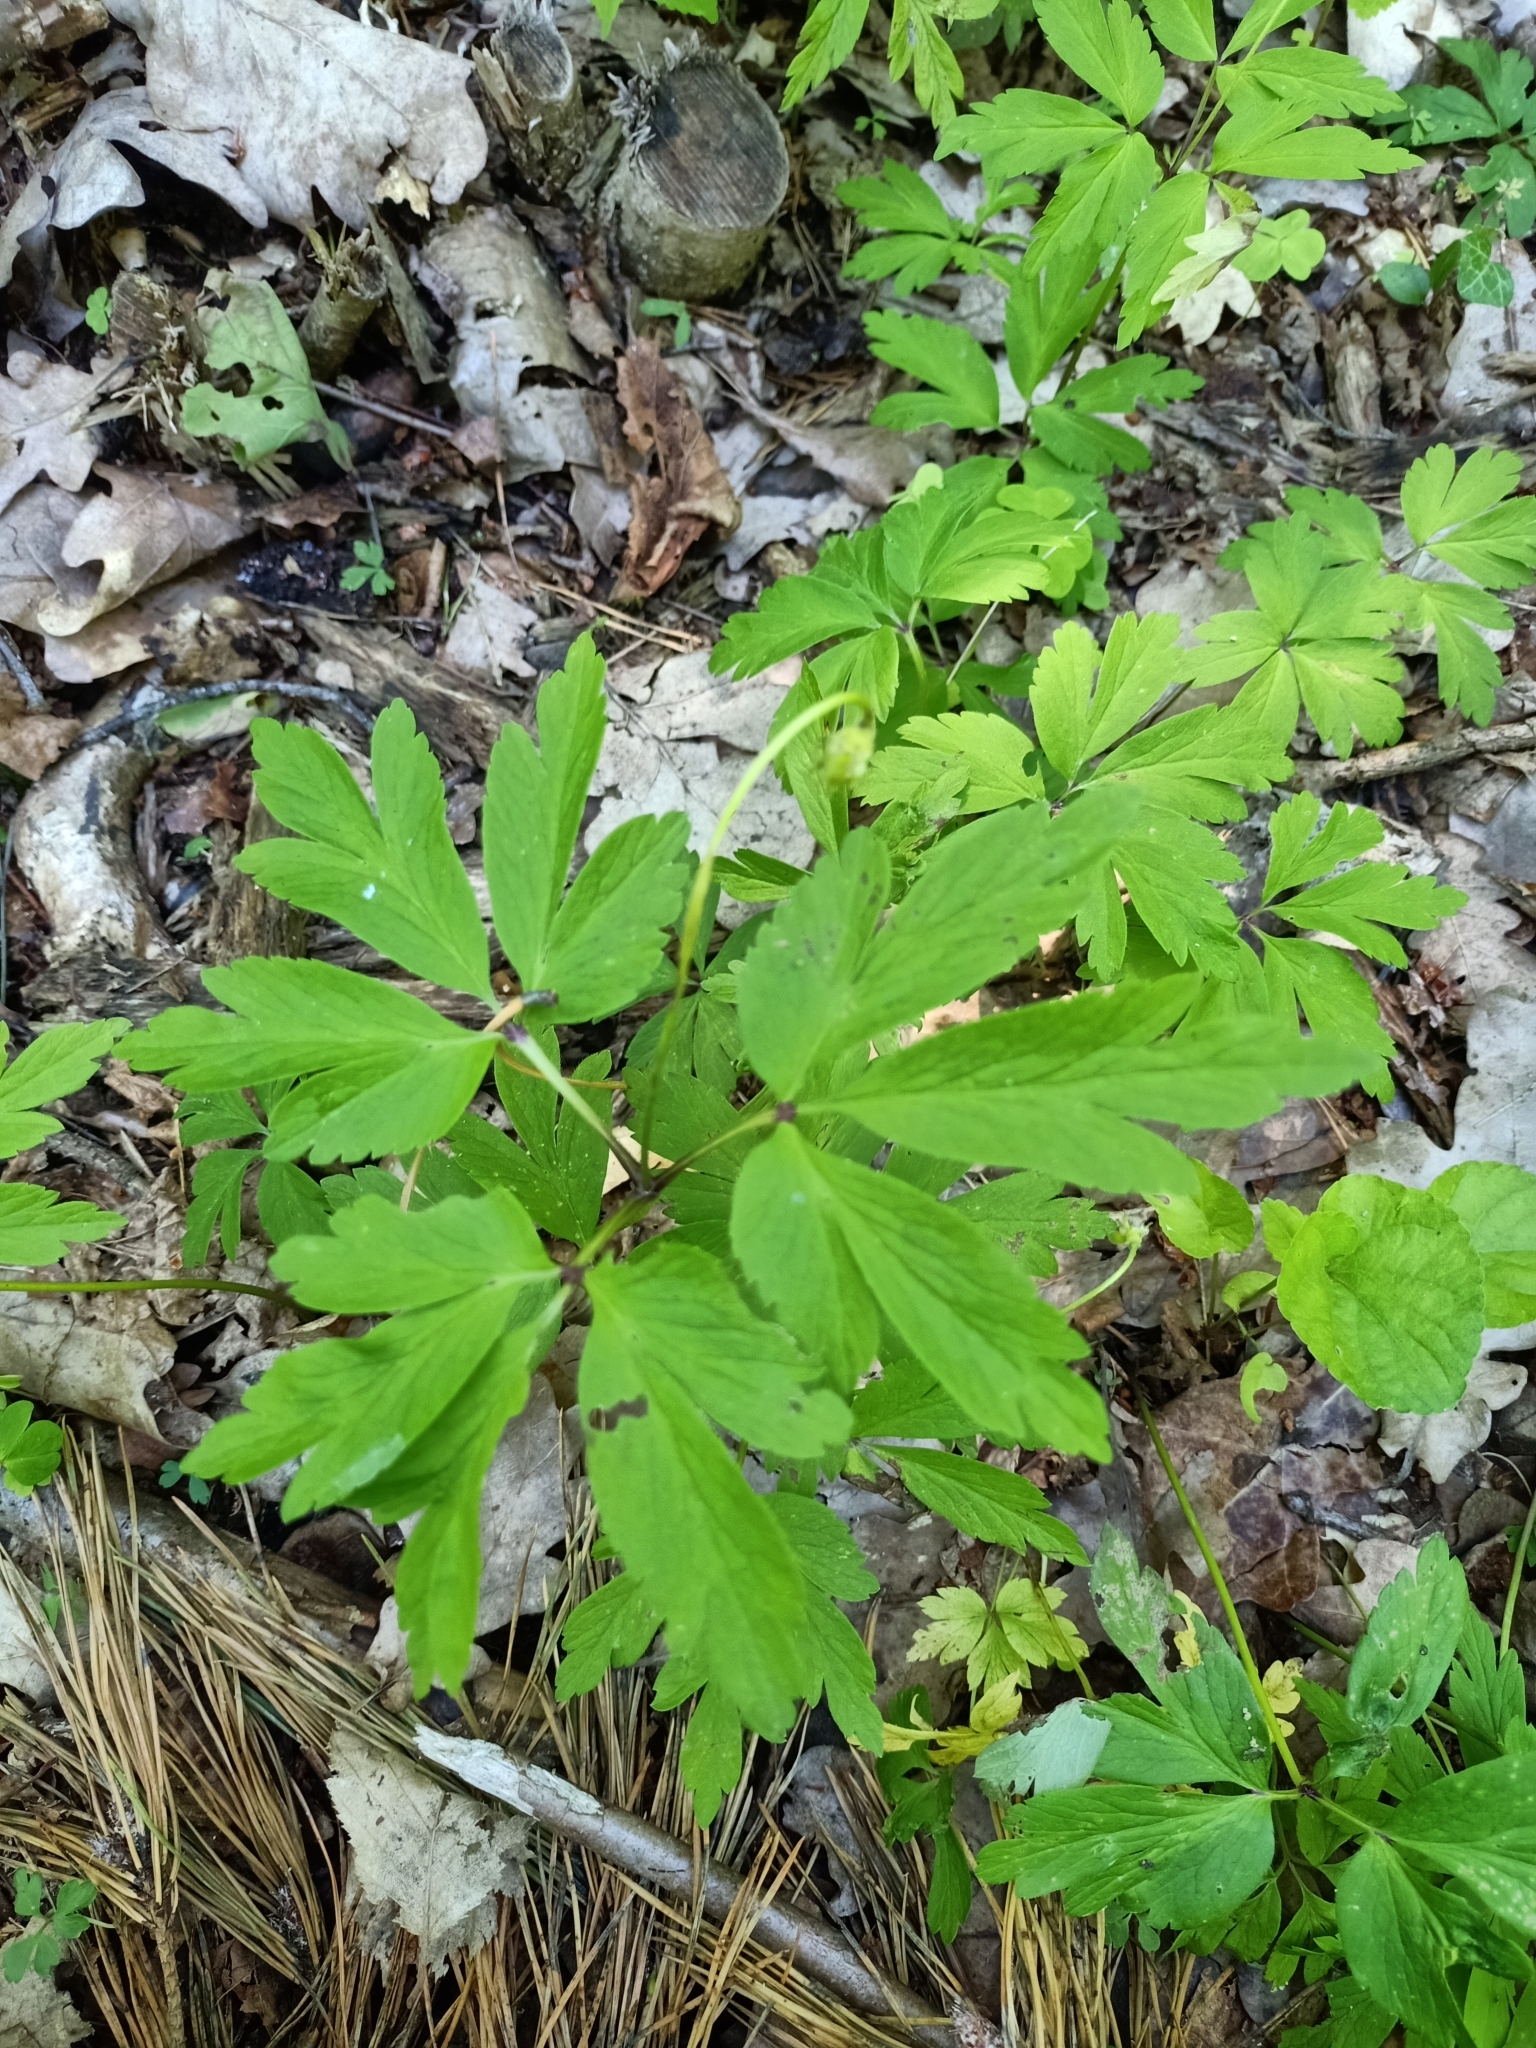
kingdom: Plantae
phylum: Tracheophyta
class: Magnoliopsida
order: Ranunculales
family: Ranunculaceae
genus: Anemone
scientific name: Anemone nemorosa
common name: Wood anemone
